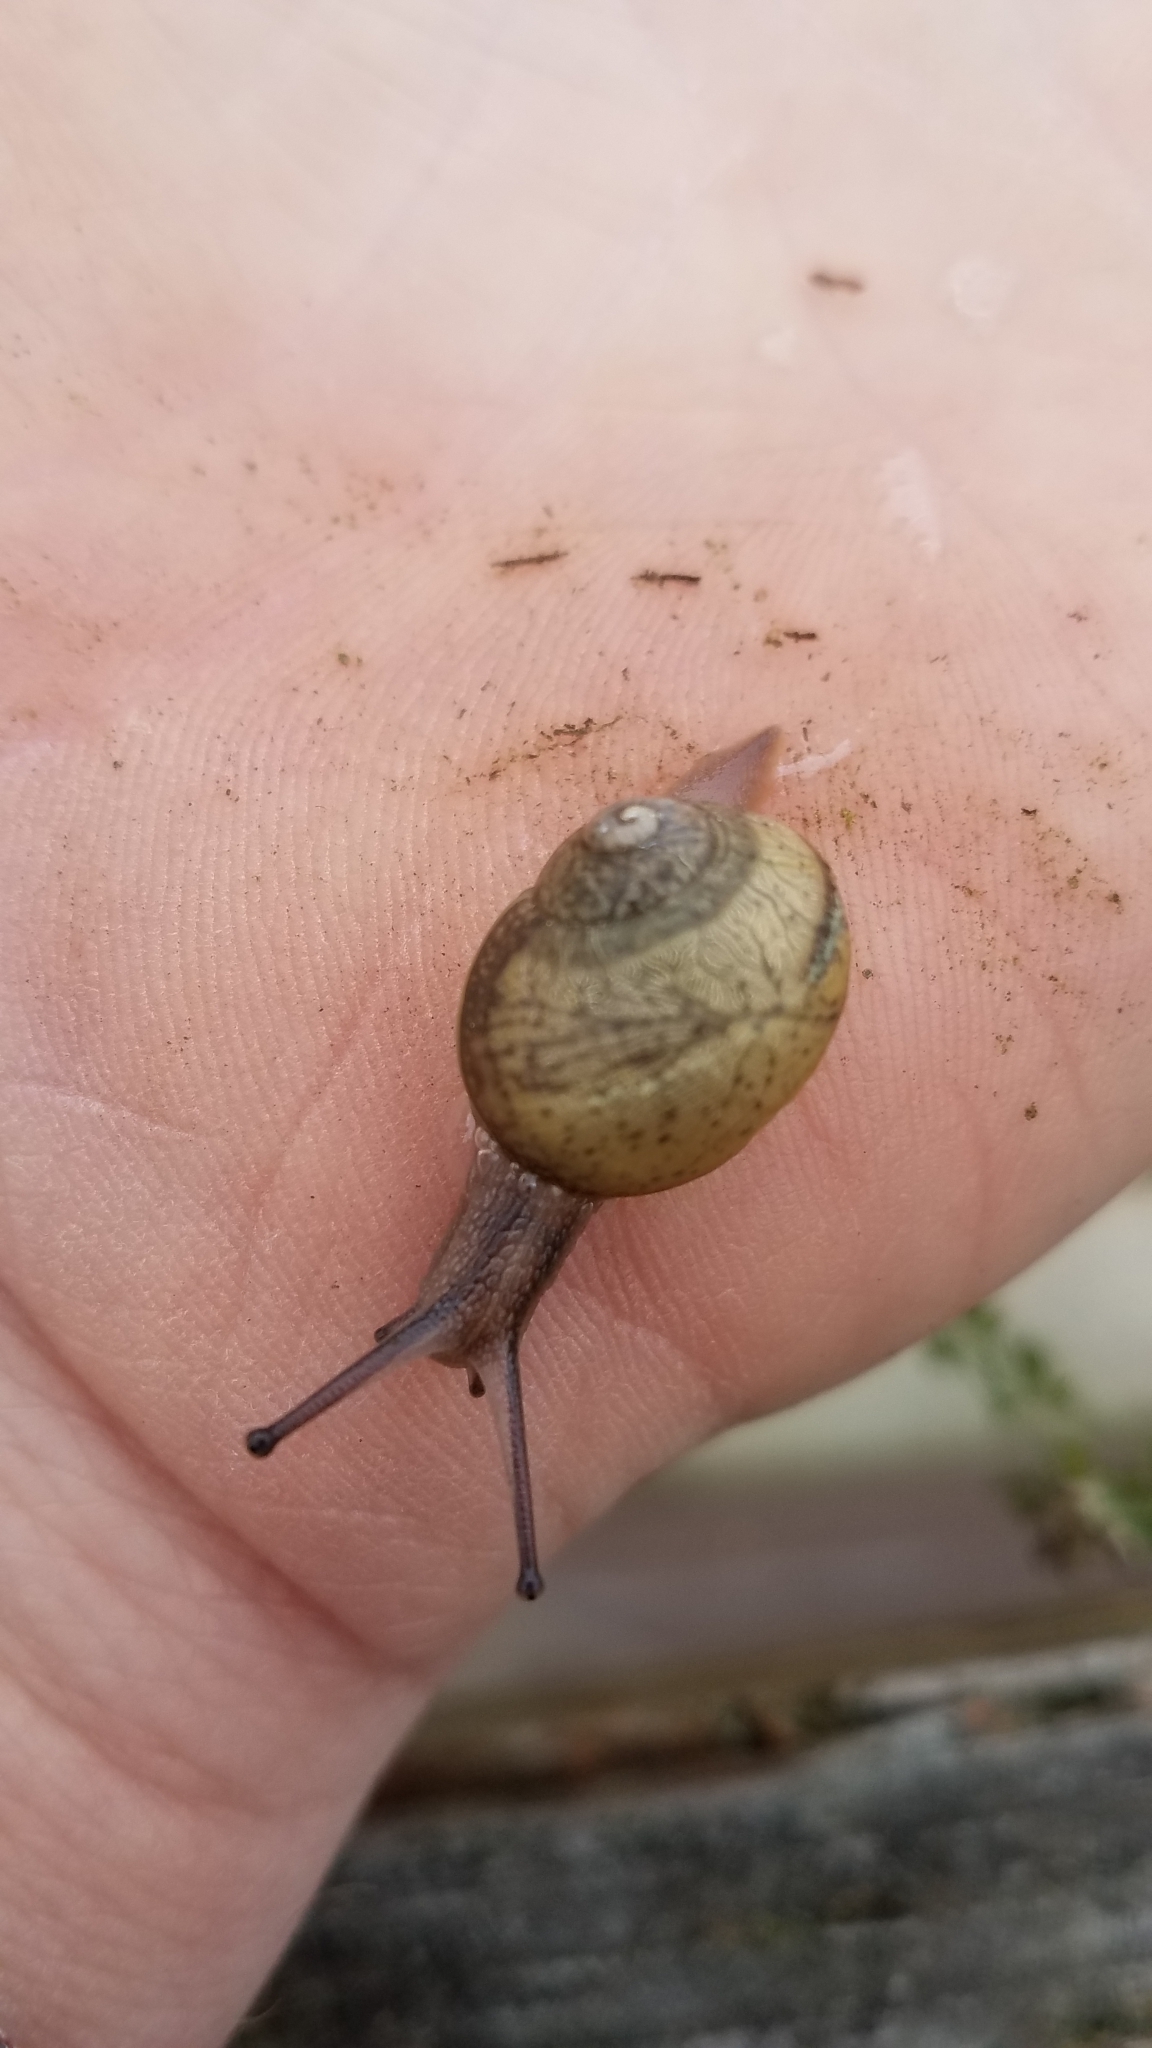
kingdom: Animalia
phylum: Mollusca
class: Gastropoda
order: Stylommatophora
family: Helicidae
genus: Cornu
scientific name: Cornu aspersum
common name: Brown garden snail
